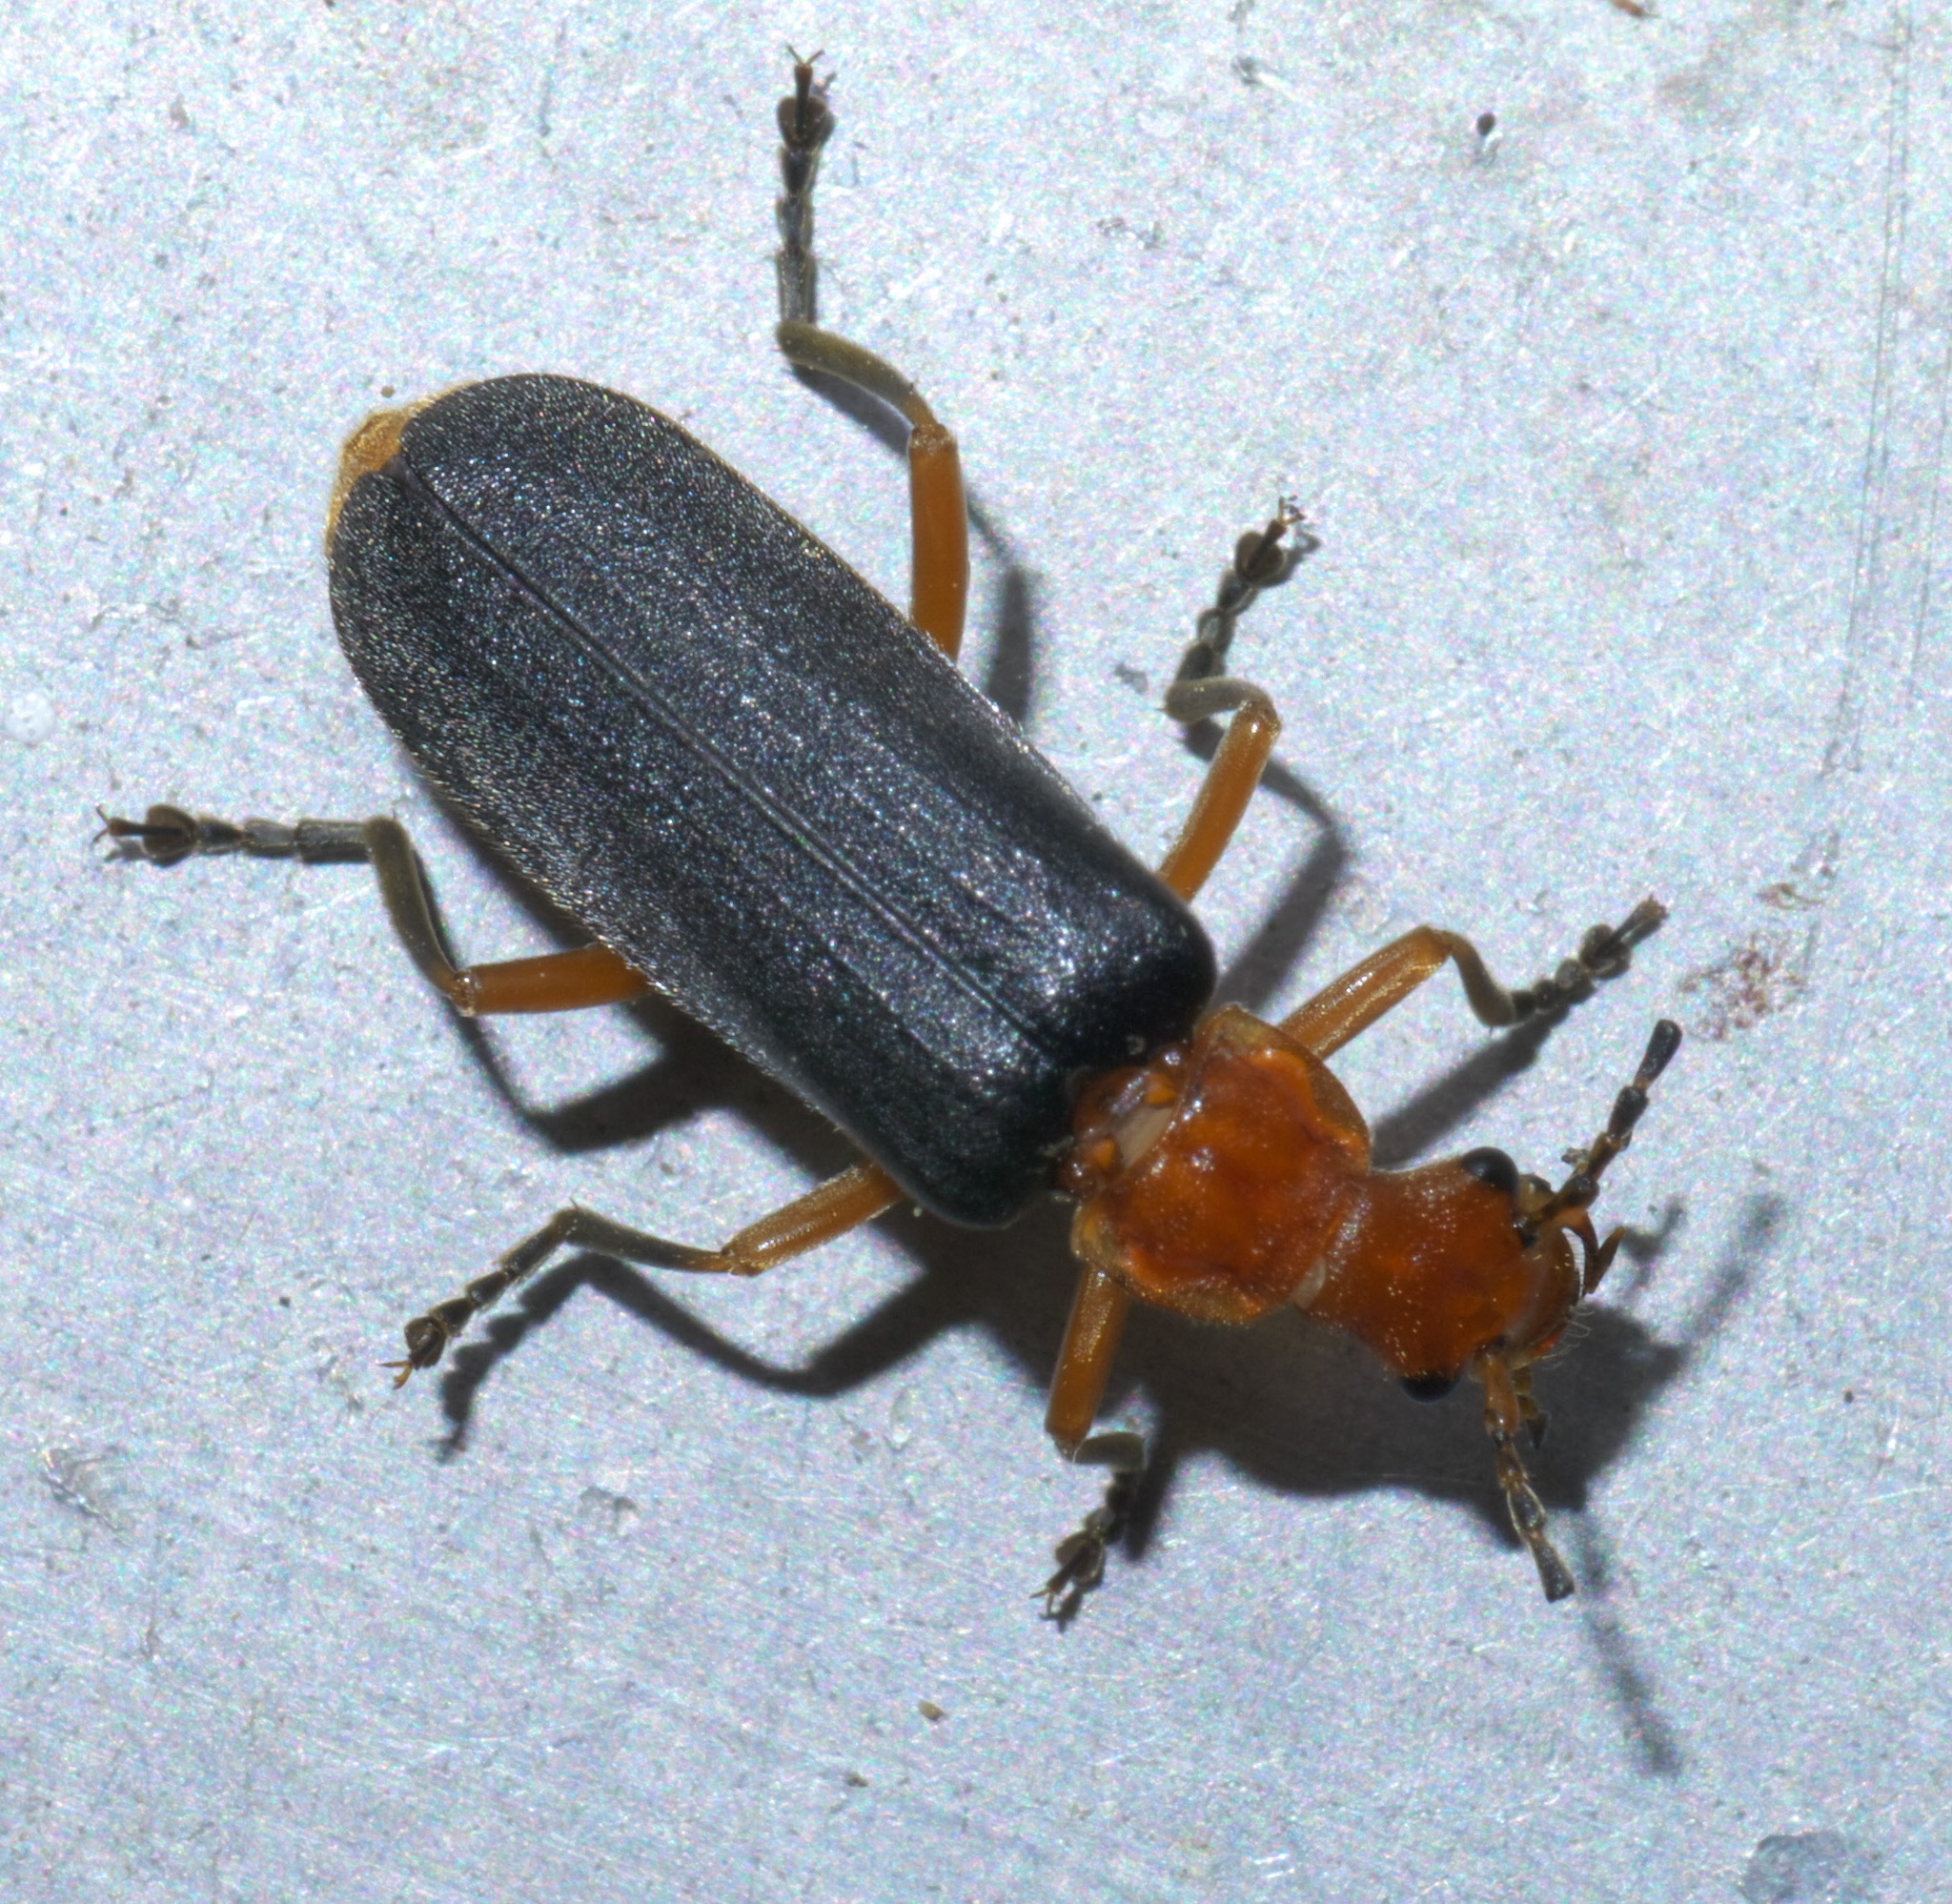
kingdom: Animalia
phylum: Arthropoda
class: Insecta
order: Coleoptera
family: Cantharidae
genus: Podabrus
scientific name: Podabrus tomentosus
